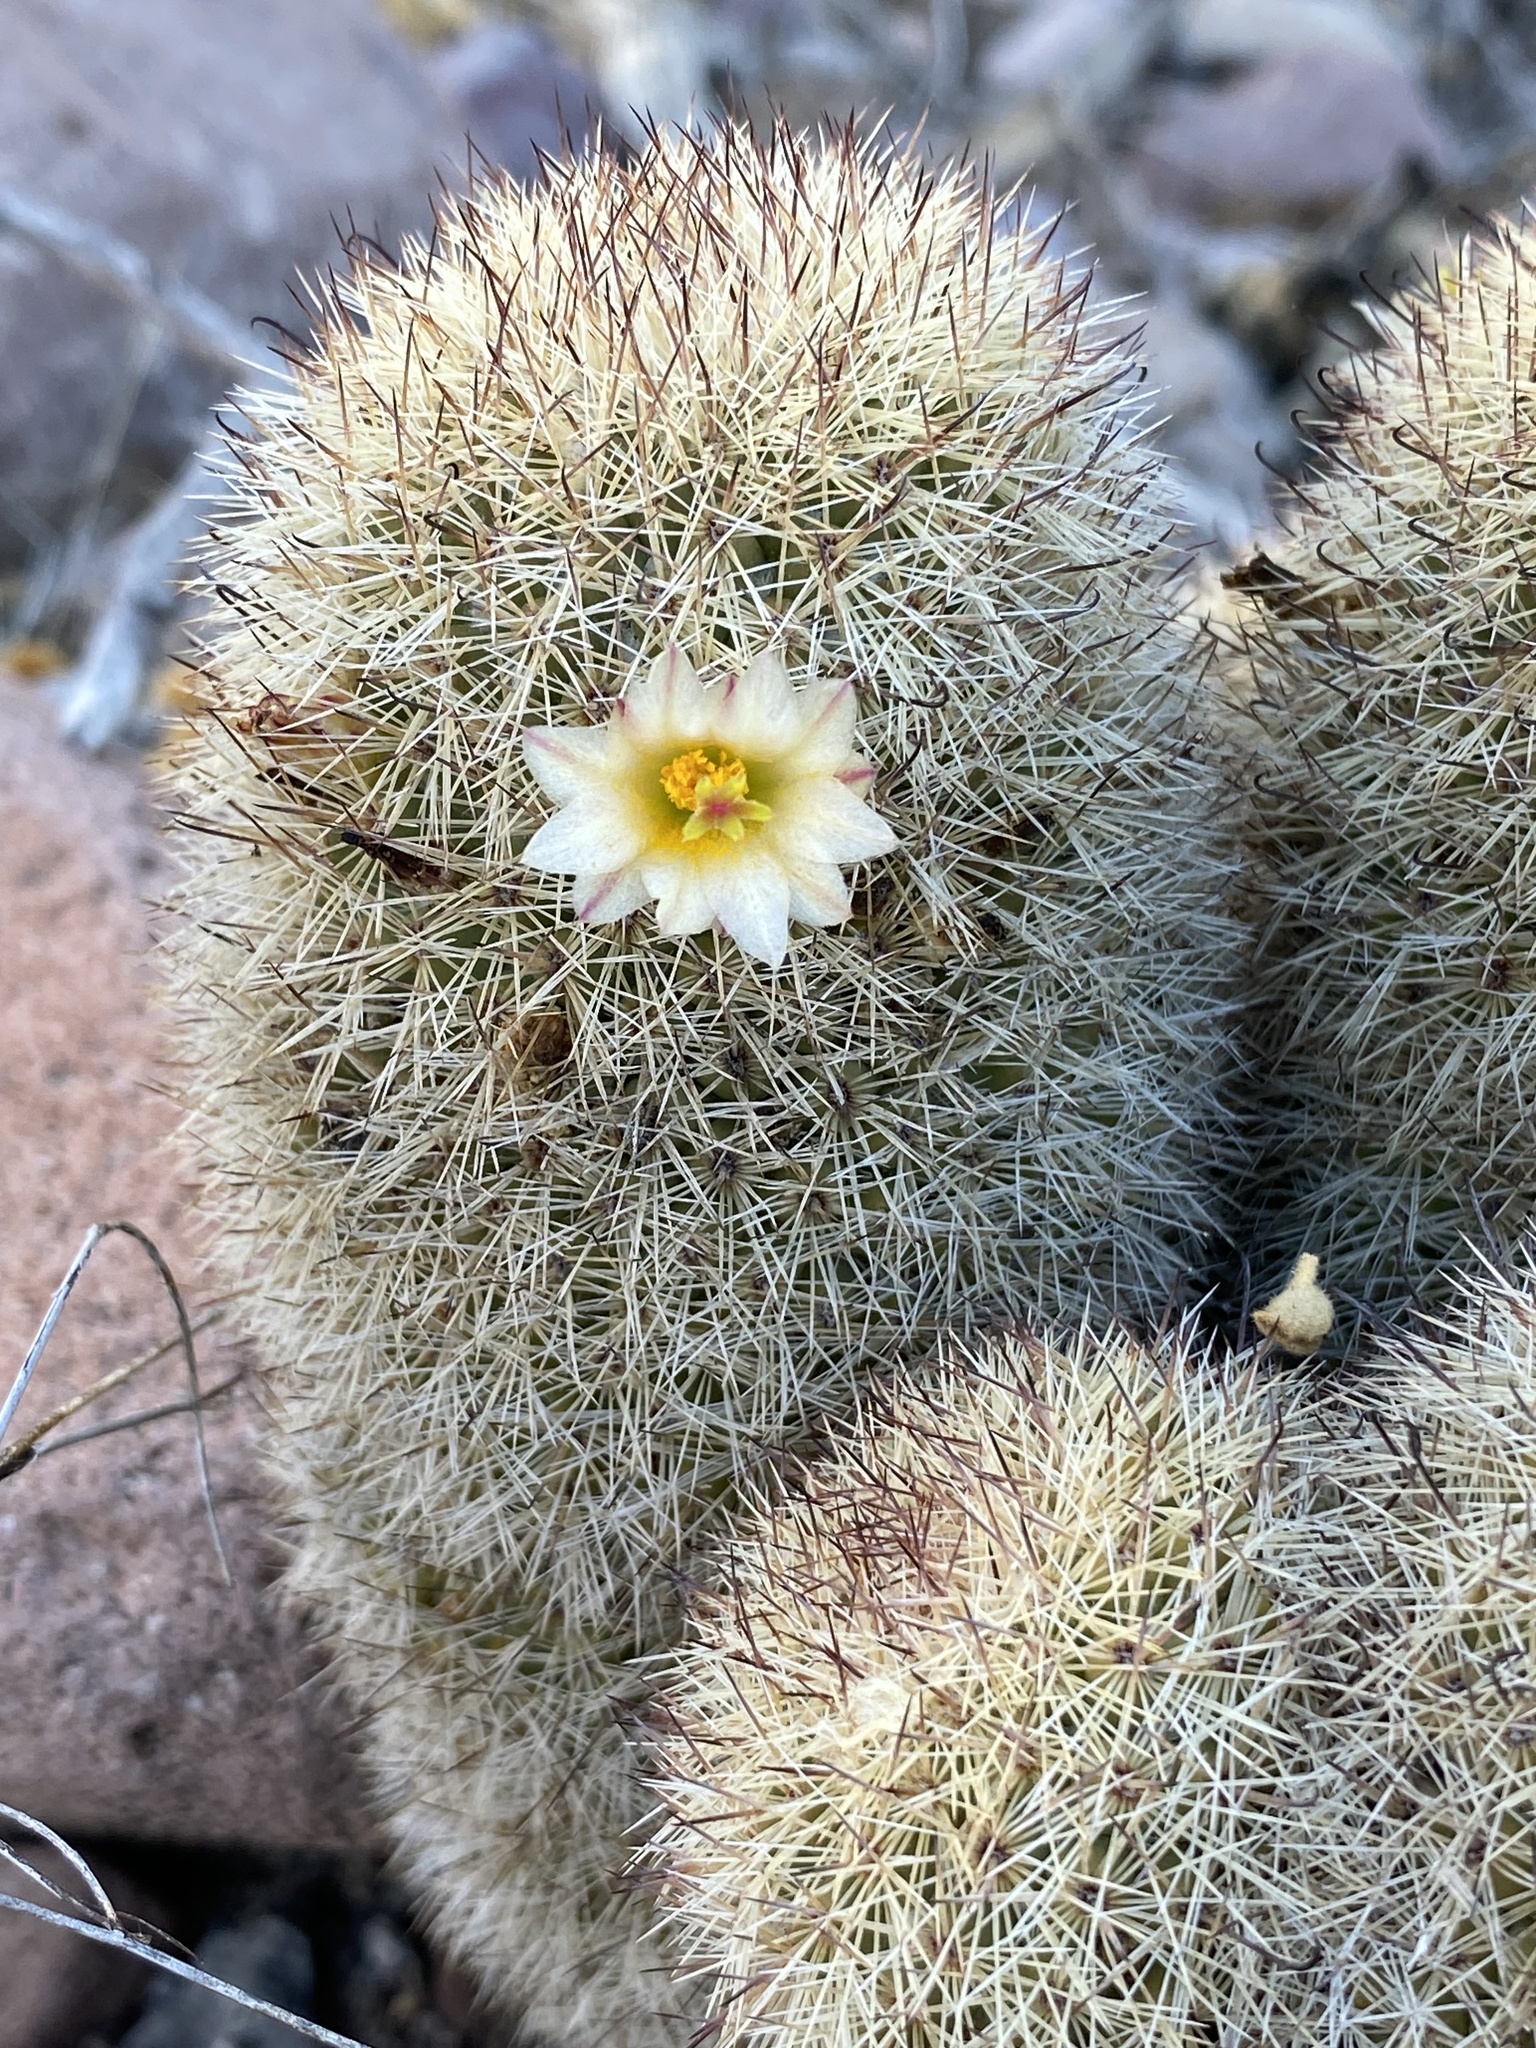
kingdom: Plantae
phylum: Tracheophyta
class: Magnoliopsida
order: Caryophyllales
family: Cactaceae
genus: Cochemiea
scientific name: Cochemiea estebanensis
